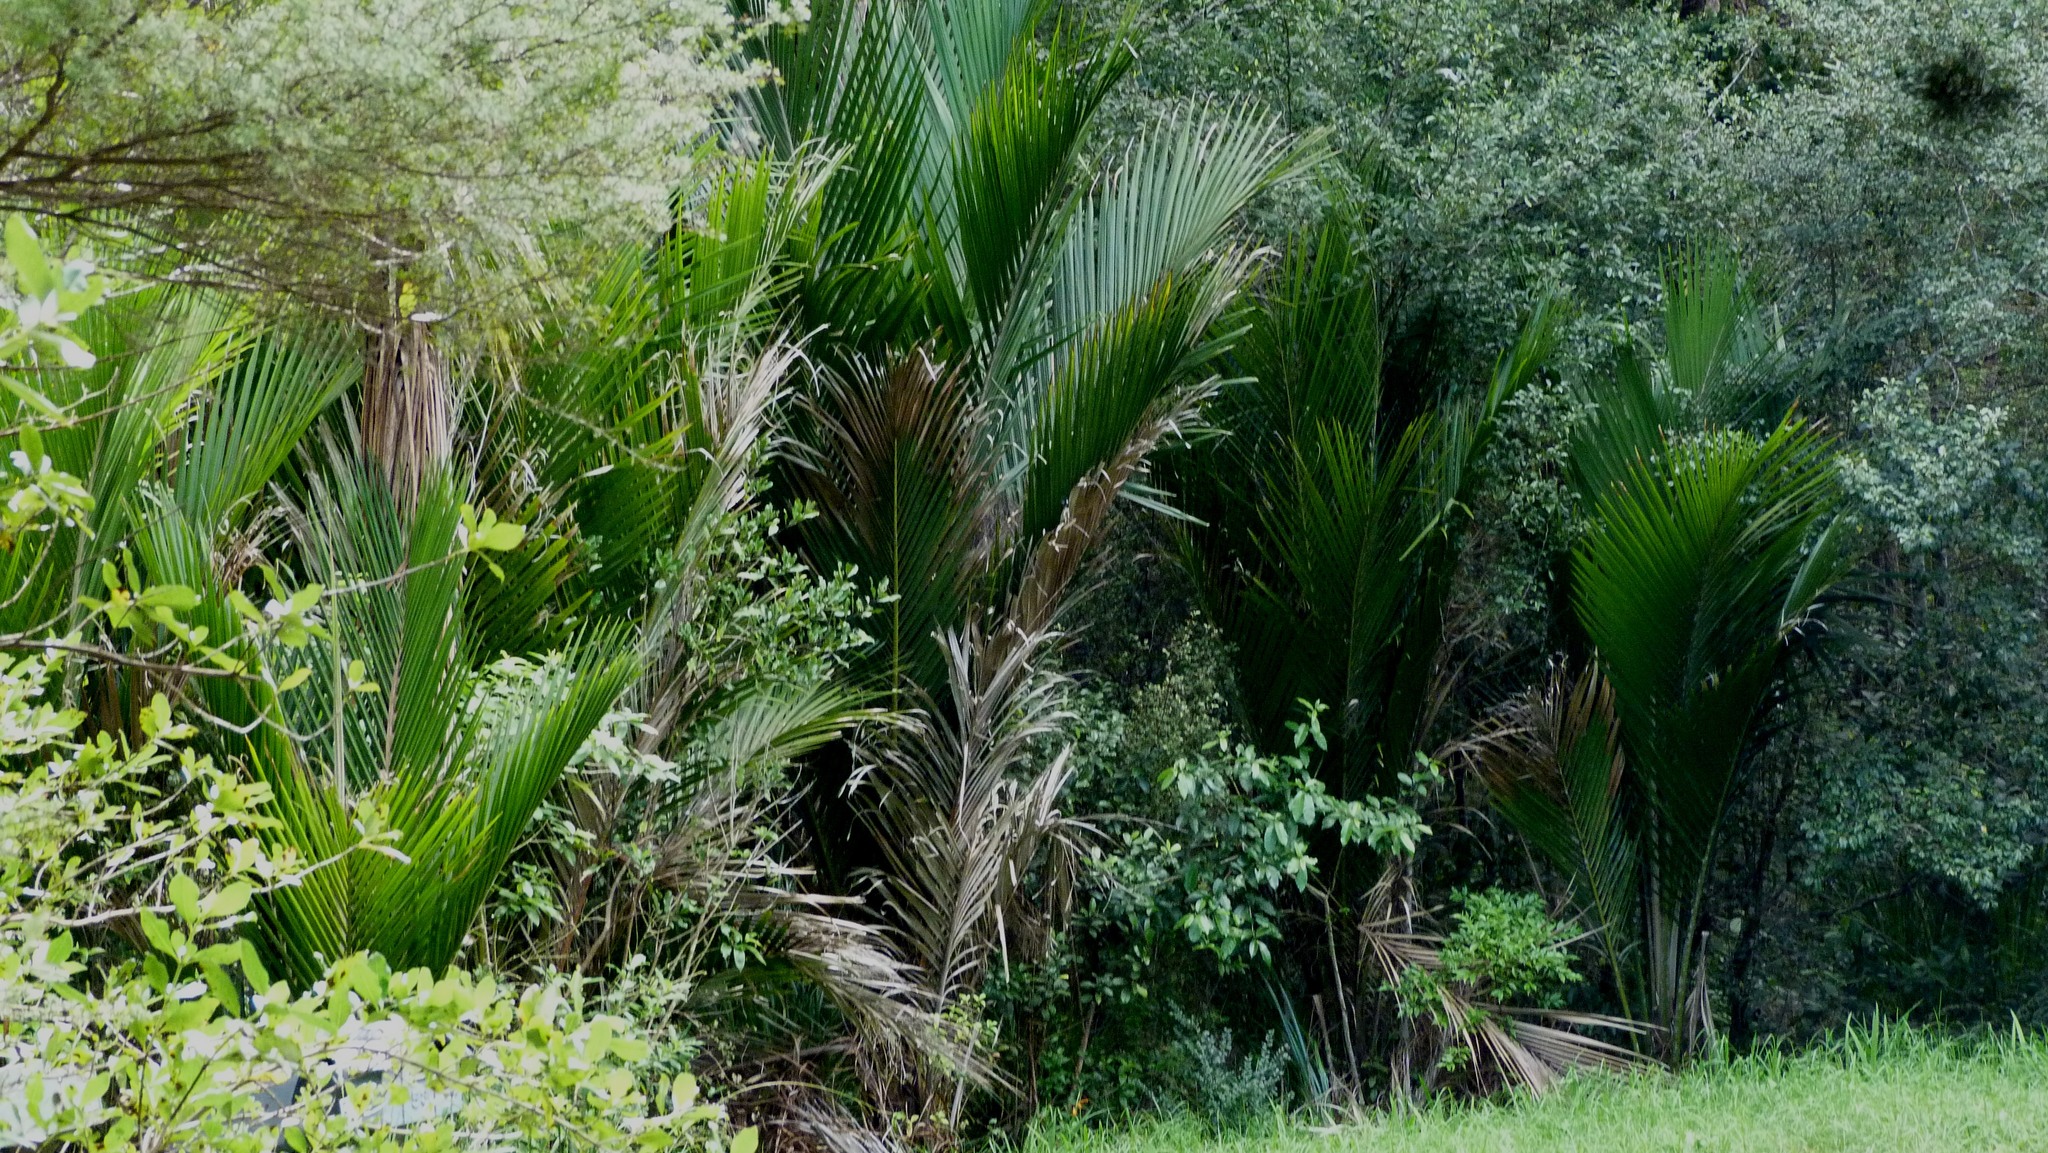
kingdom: Plantae
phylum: Tracheophyta
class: Liliopsida
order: Arecales
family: Arecaceae
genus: Rhopalostylis
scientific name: Rhopalostylis sapida
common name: Feather-duster palm
